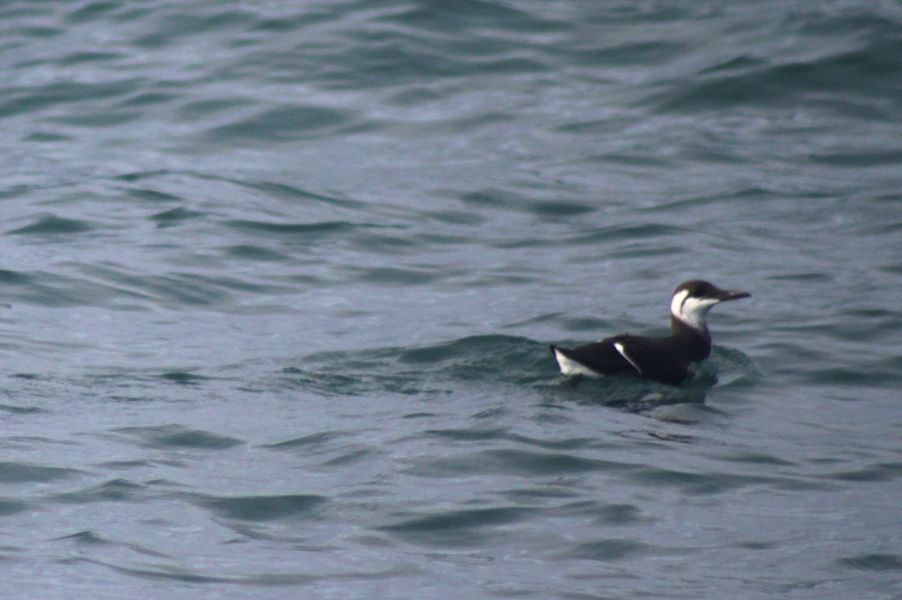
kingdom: Animalia
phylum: Chordata
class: Aves
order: Charadriiformes
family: Alcidae
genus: Uria
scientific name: Uria aalge
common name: Common murre
